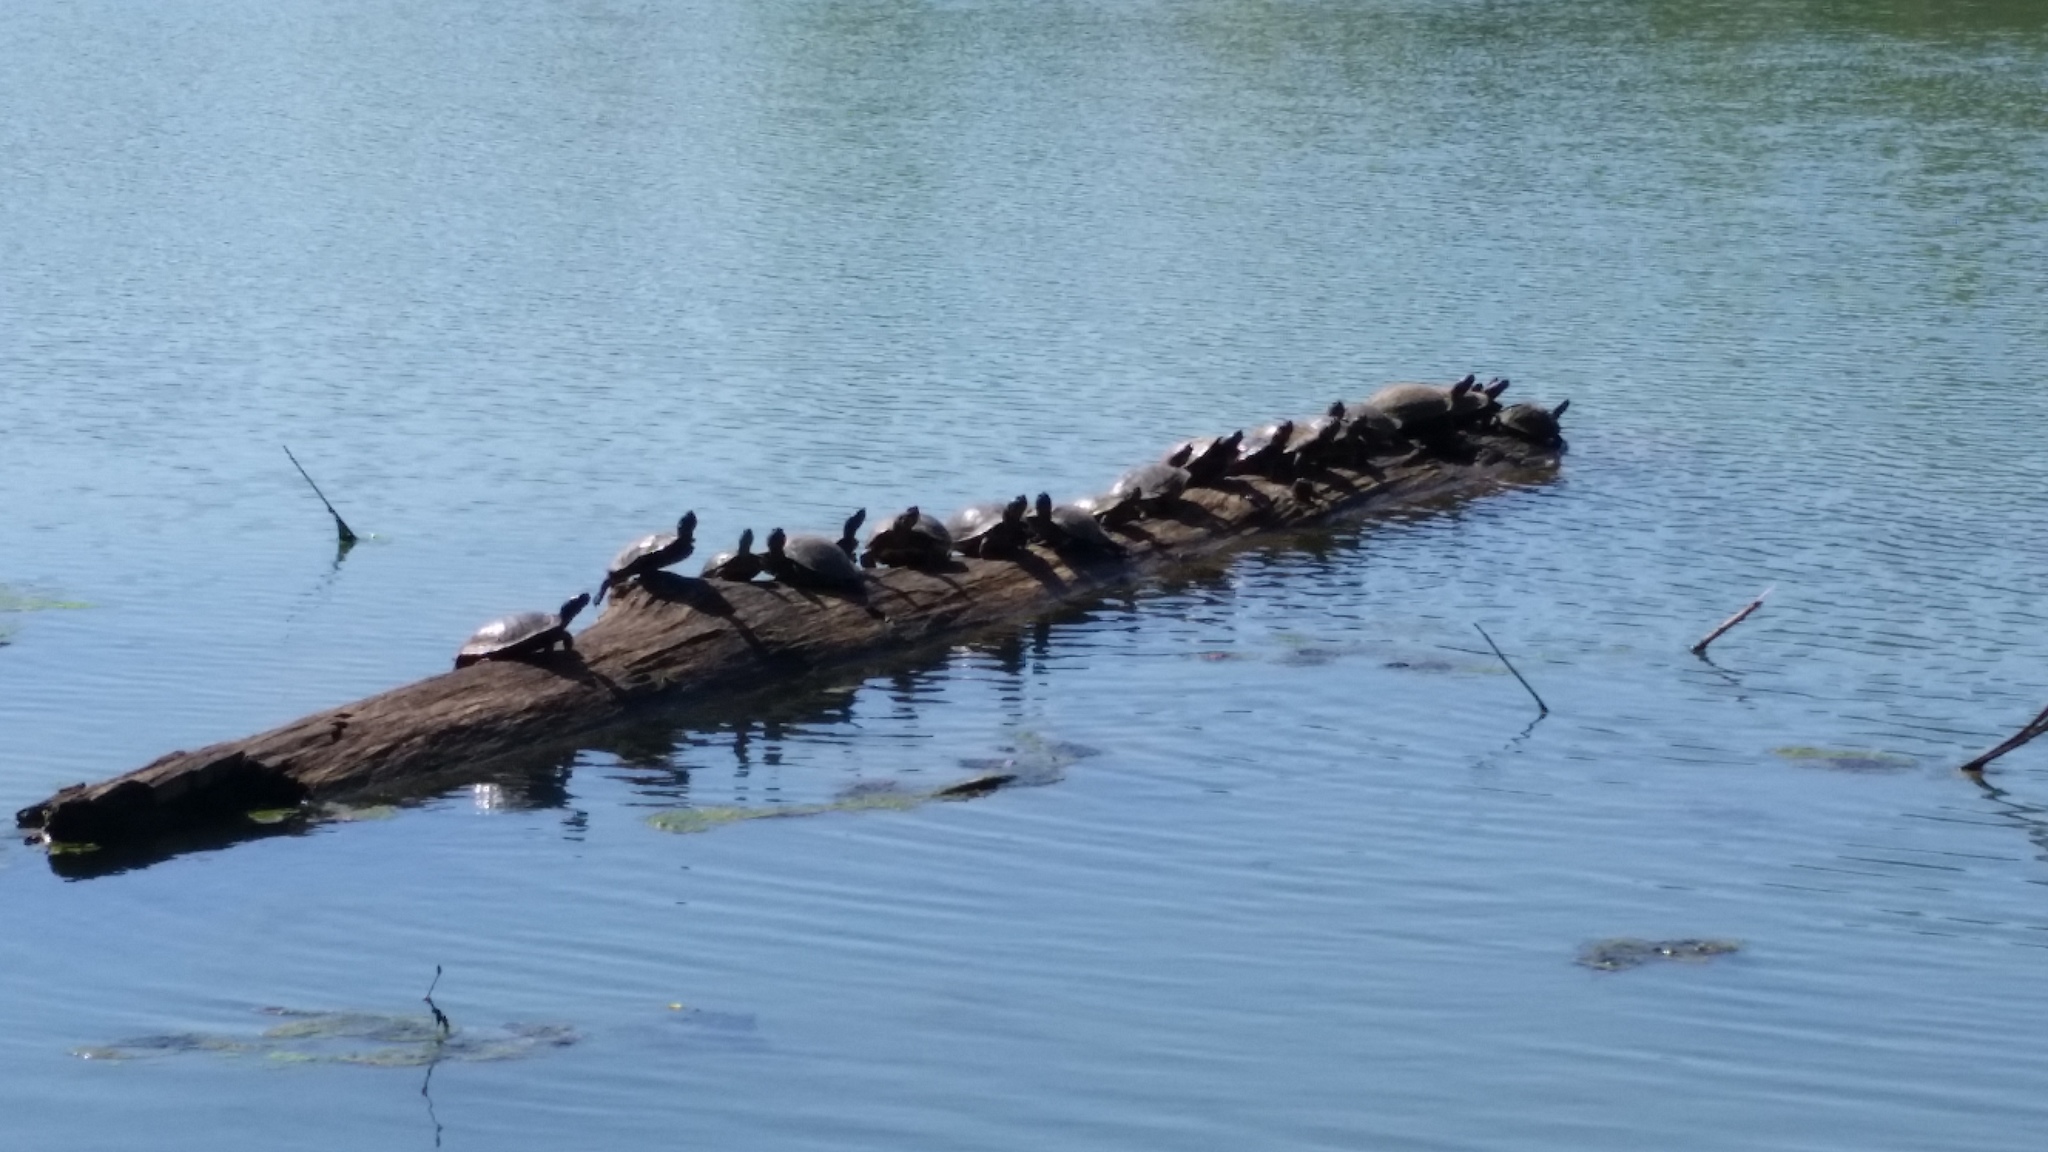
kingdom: Animalia
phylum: Chordata
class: Testudines
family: Emydidae
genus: Trachemys
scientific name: Trachemys scripta
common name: Slider
